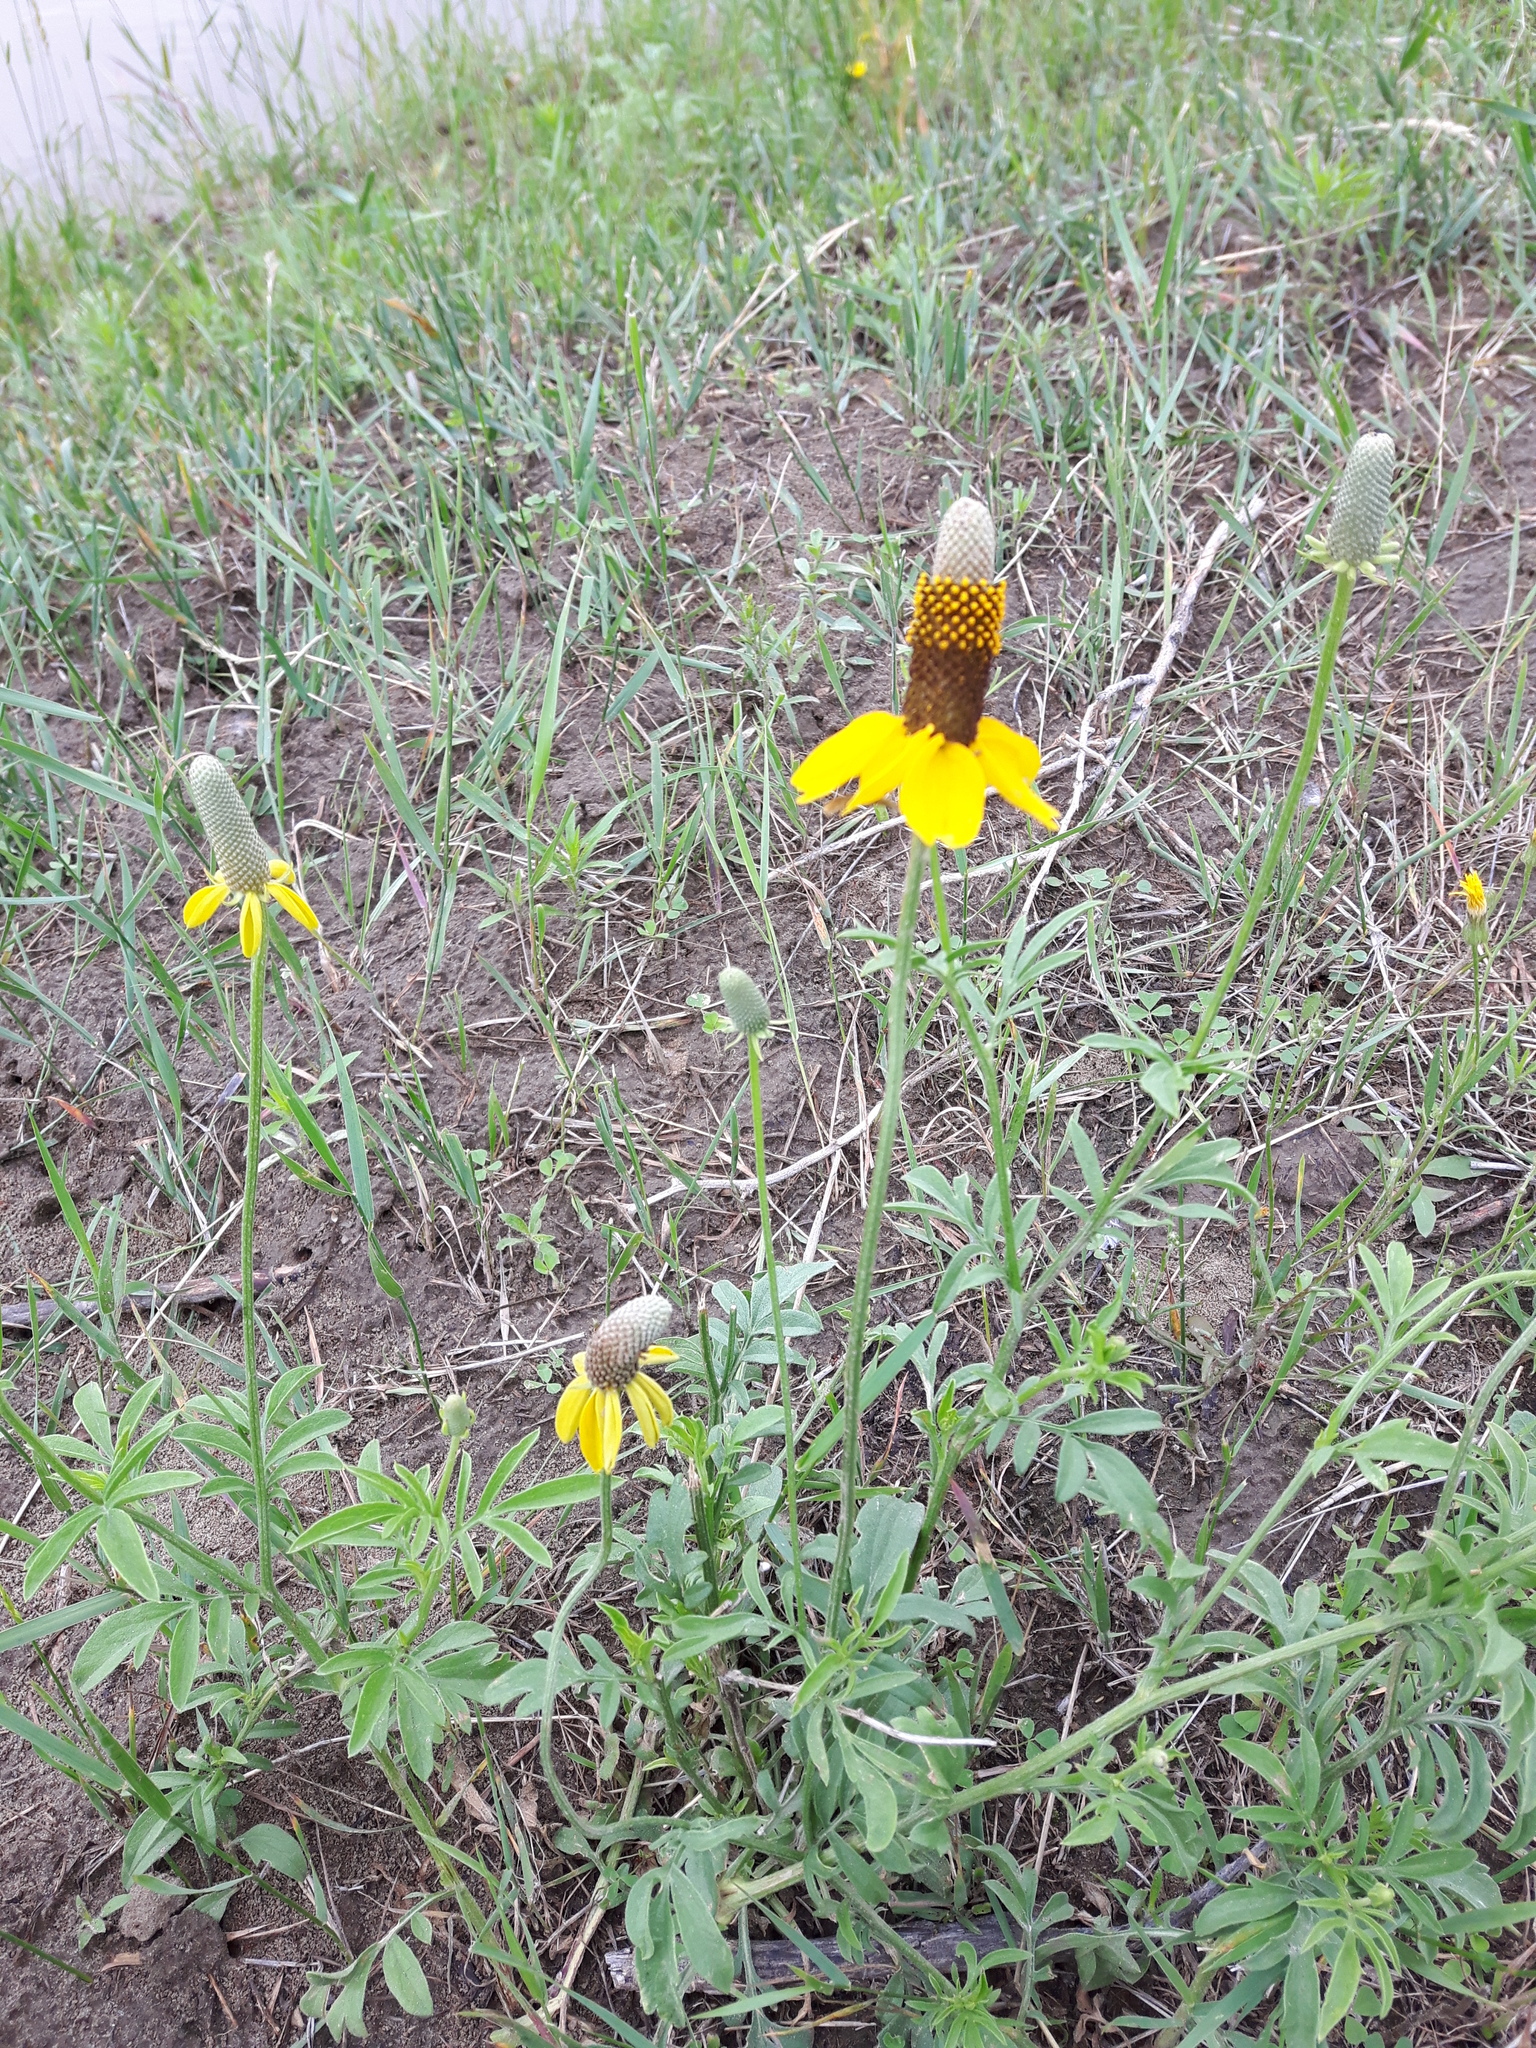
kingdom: Plantae
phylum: Tracheophyta
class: Magnoliopsida
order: Asterales
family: Asteraceae
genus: Ratibida
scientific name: Ratibida columnifera
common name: Prairie coneflower
